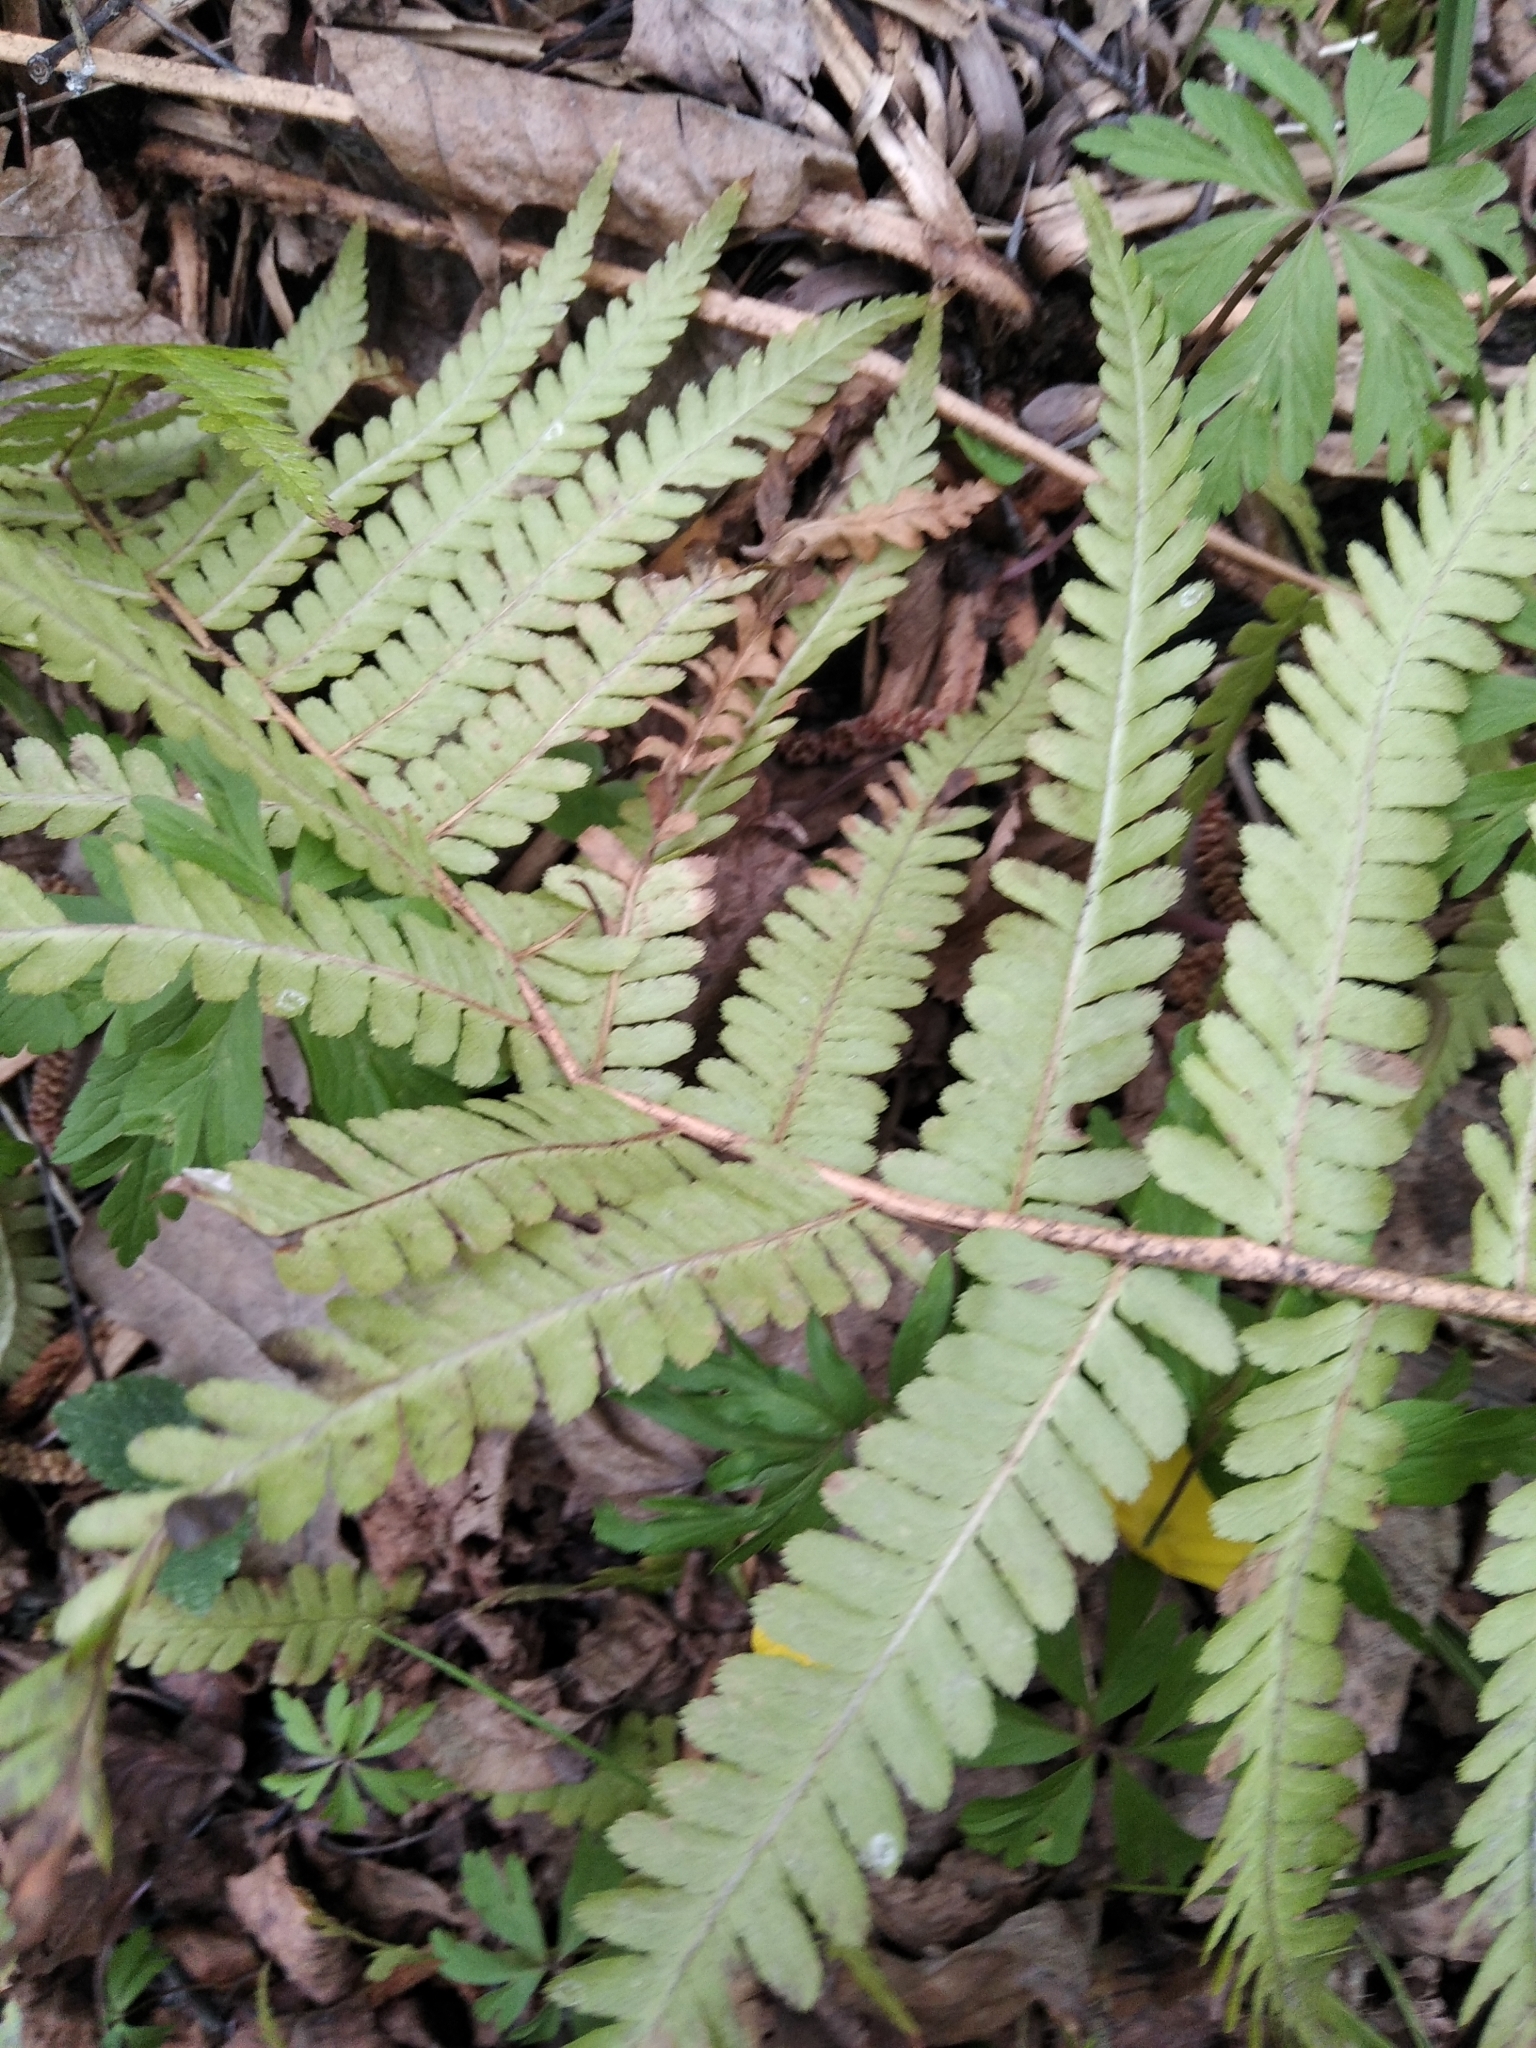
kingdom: Plantae
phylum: Tracheophyta
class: Polypodiopsida
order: Polypodiales
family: Dryopteridaceae
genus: Dryopteris
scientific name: Dryopteris filix-mas
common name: Male fern
